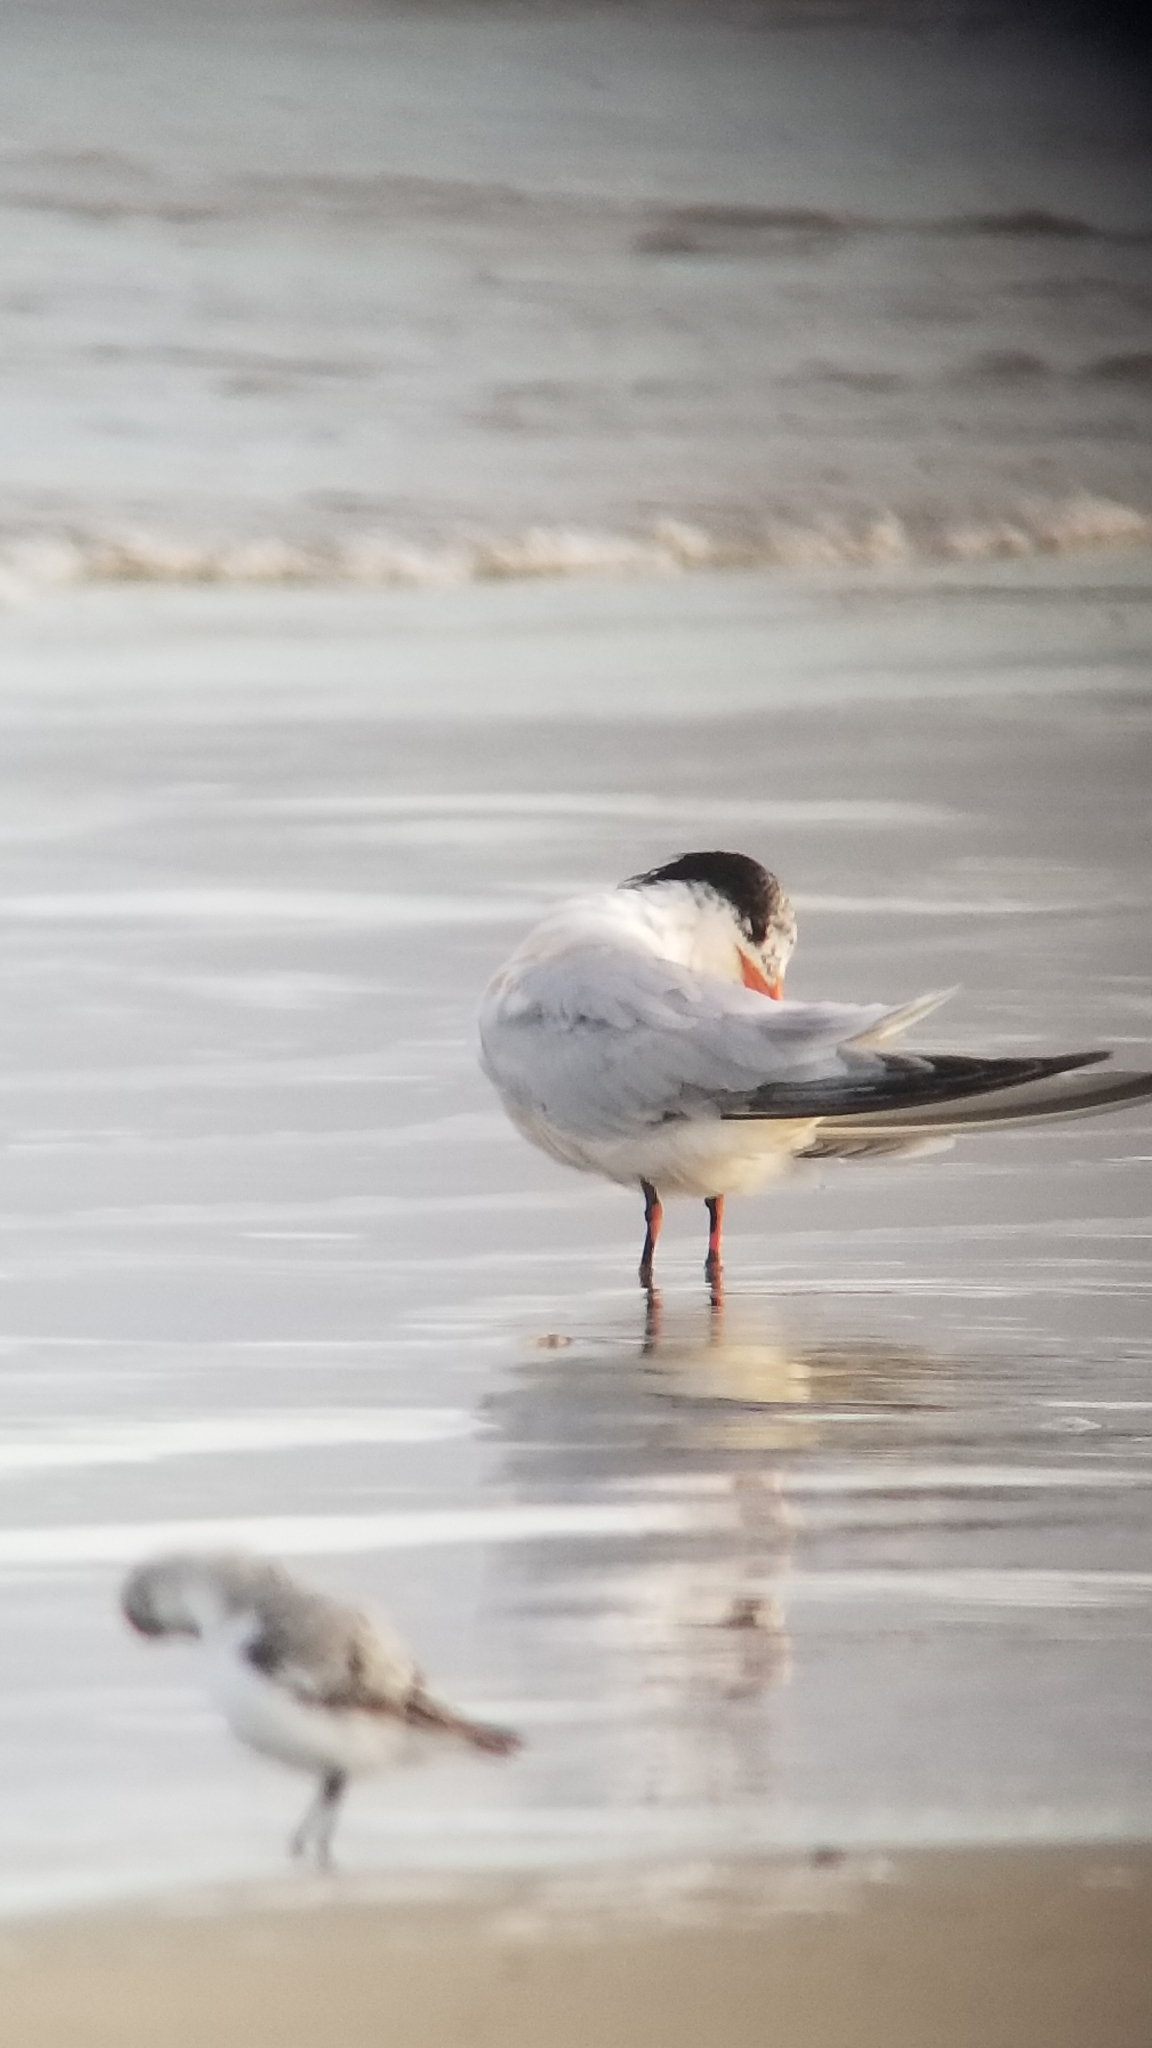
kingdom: Animalia
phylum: Chordata
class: Aves
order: Charadriiformes
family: Laridae
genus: Thalasseus
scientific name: Thalasseus elegans
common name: Elegant tern
